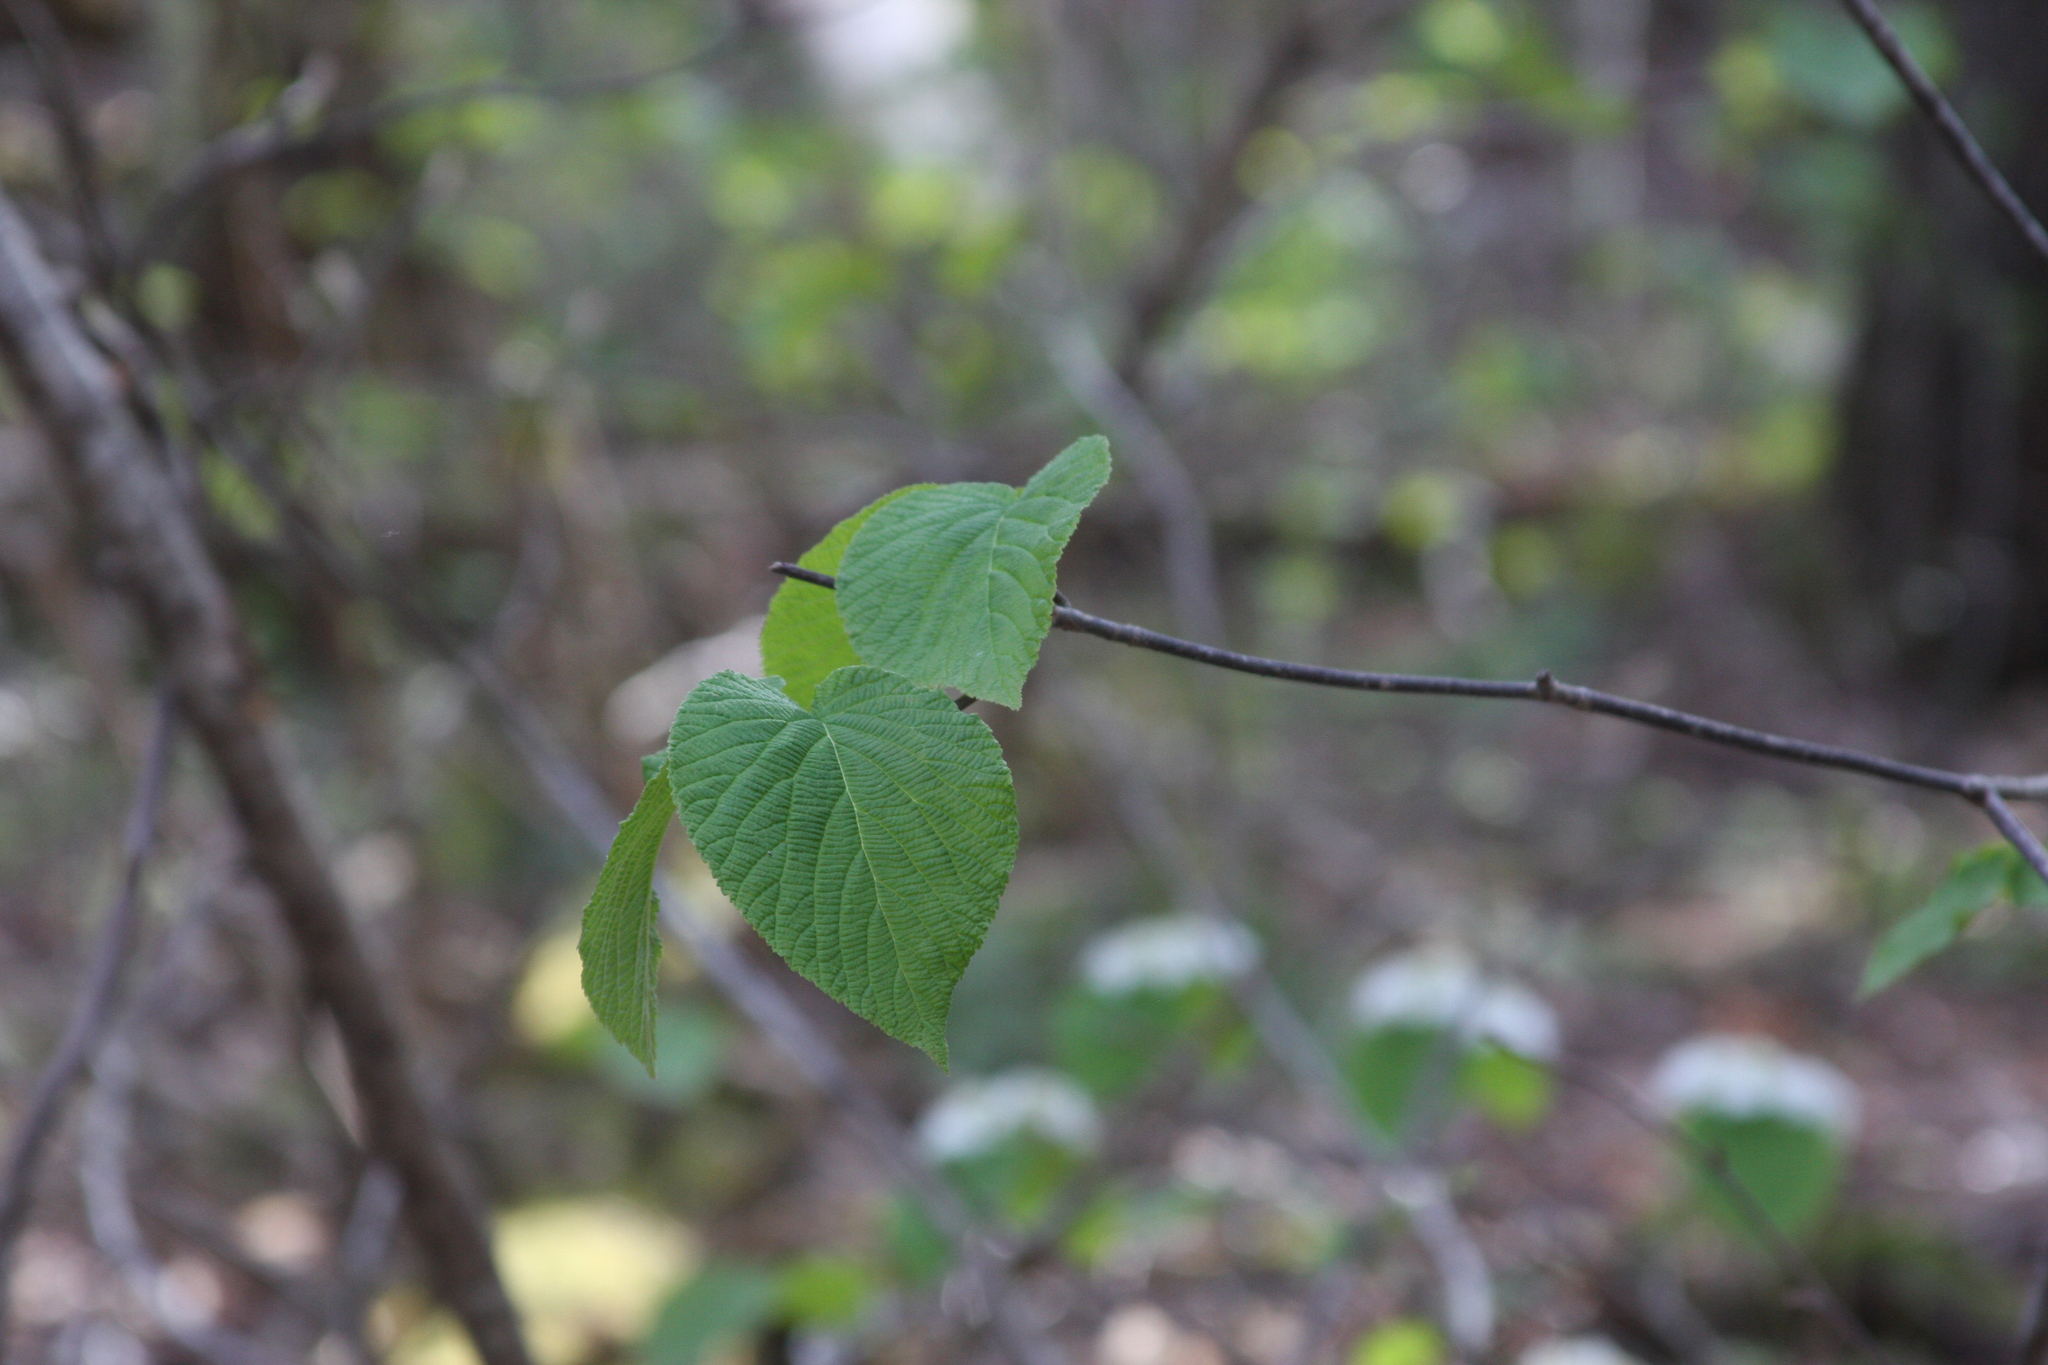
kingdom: Plantae
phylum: Tracheophyta
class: Magnoliopsida
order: Dipsacales
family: Viburnaceae
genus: Viburnum
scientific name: Viburnum lantanoides
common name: Hobblebush
